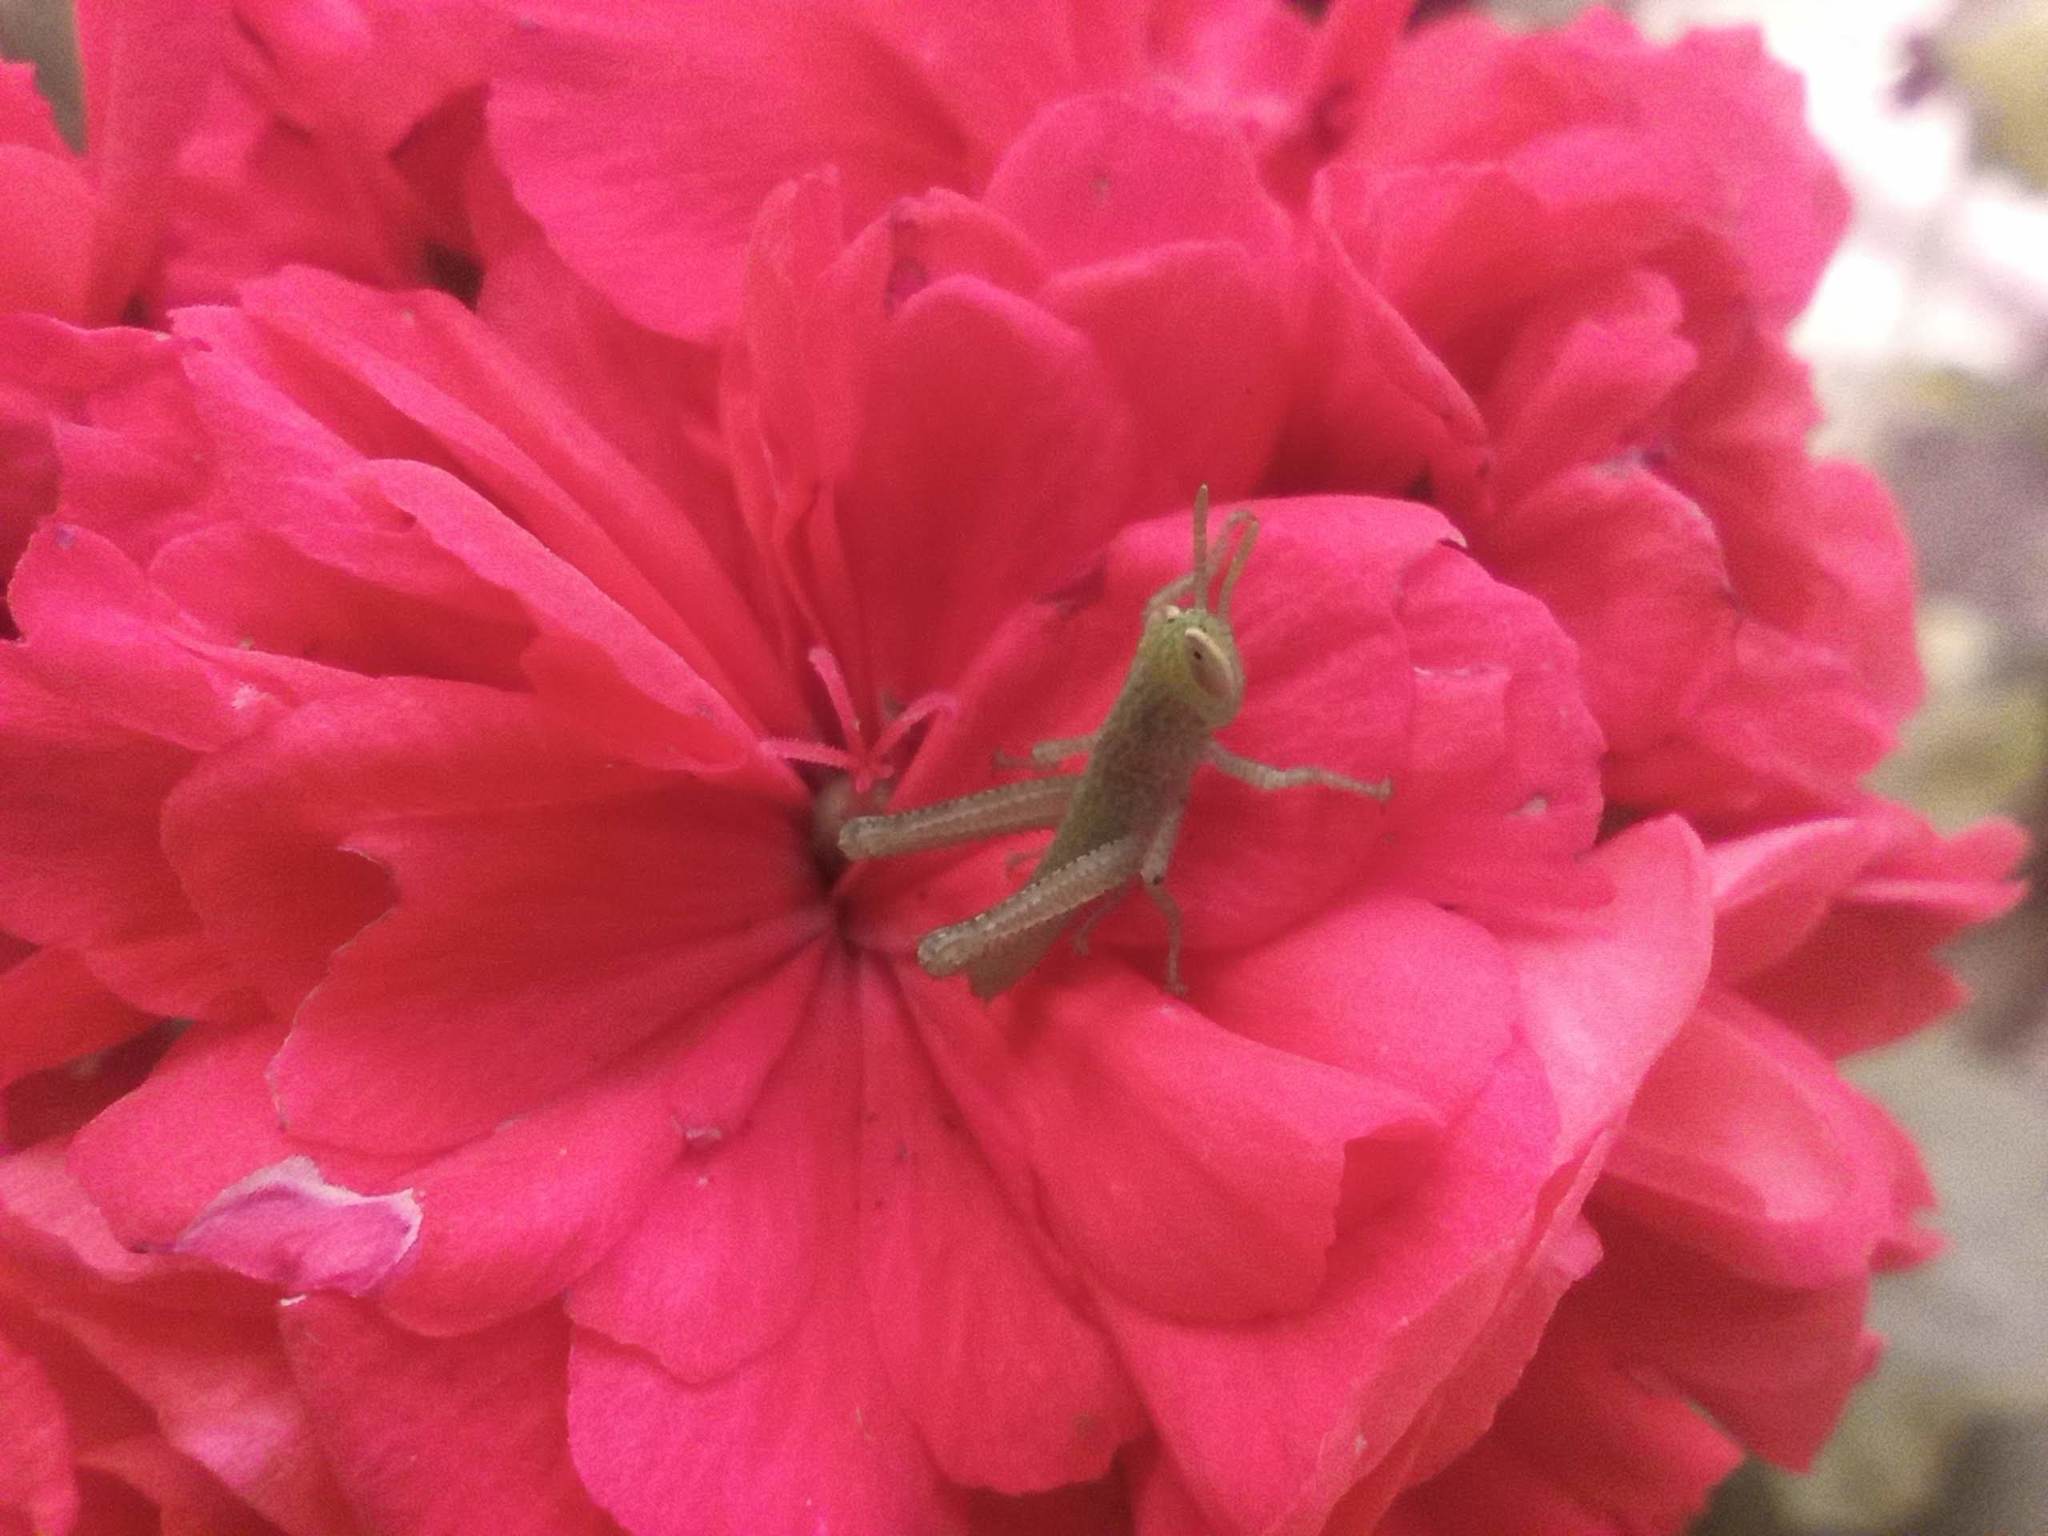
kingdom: Animalia
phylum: Arthropoda
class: Insecta
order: Orthoptera
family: Acrididae
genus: Anacridium
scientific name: Anacridium aegyptium
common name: Egyptian grasshopper
